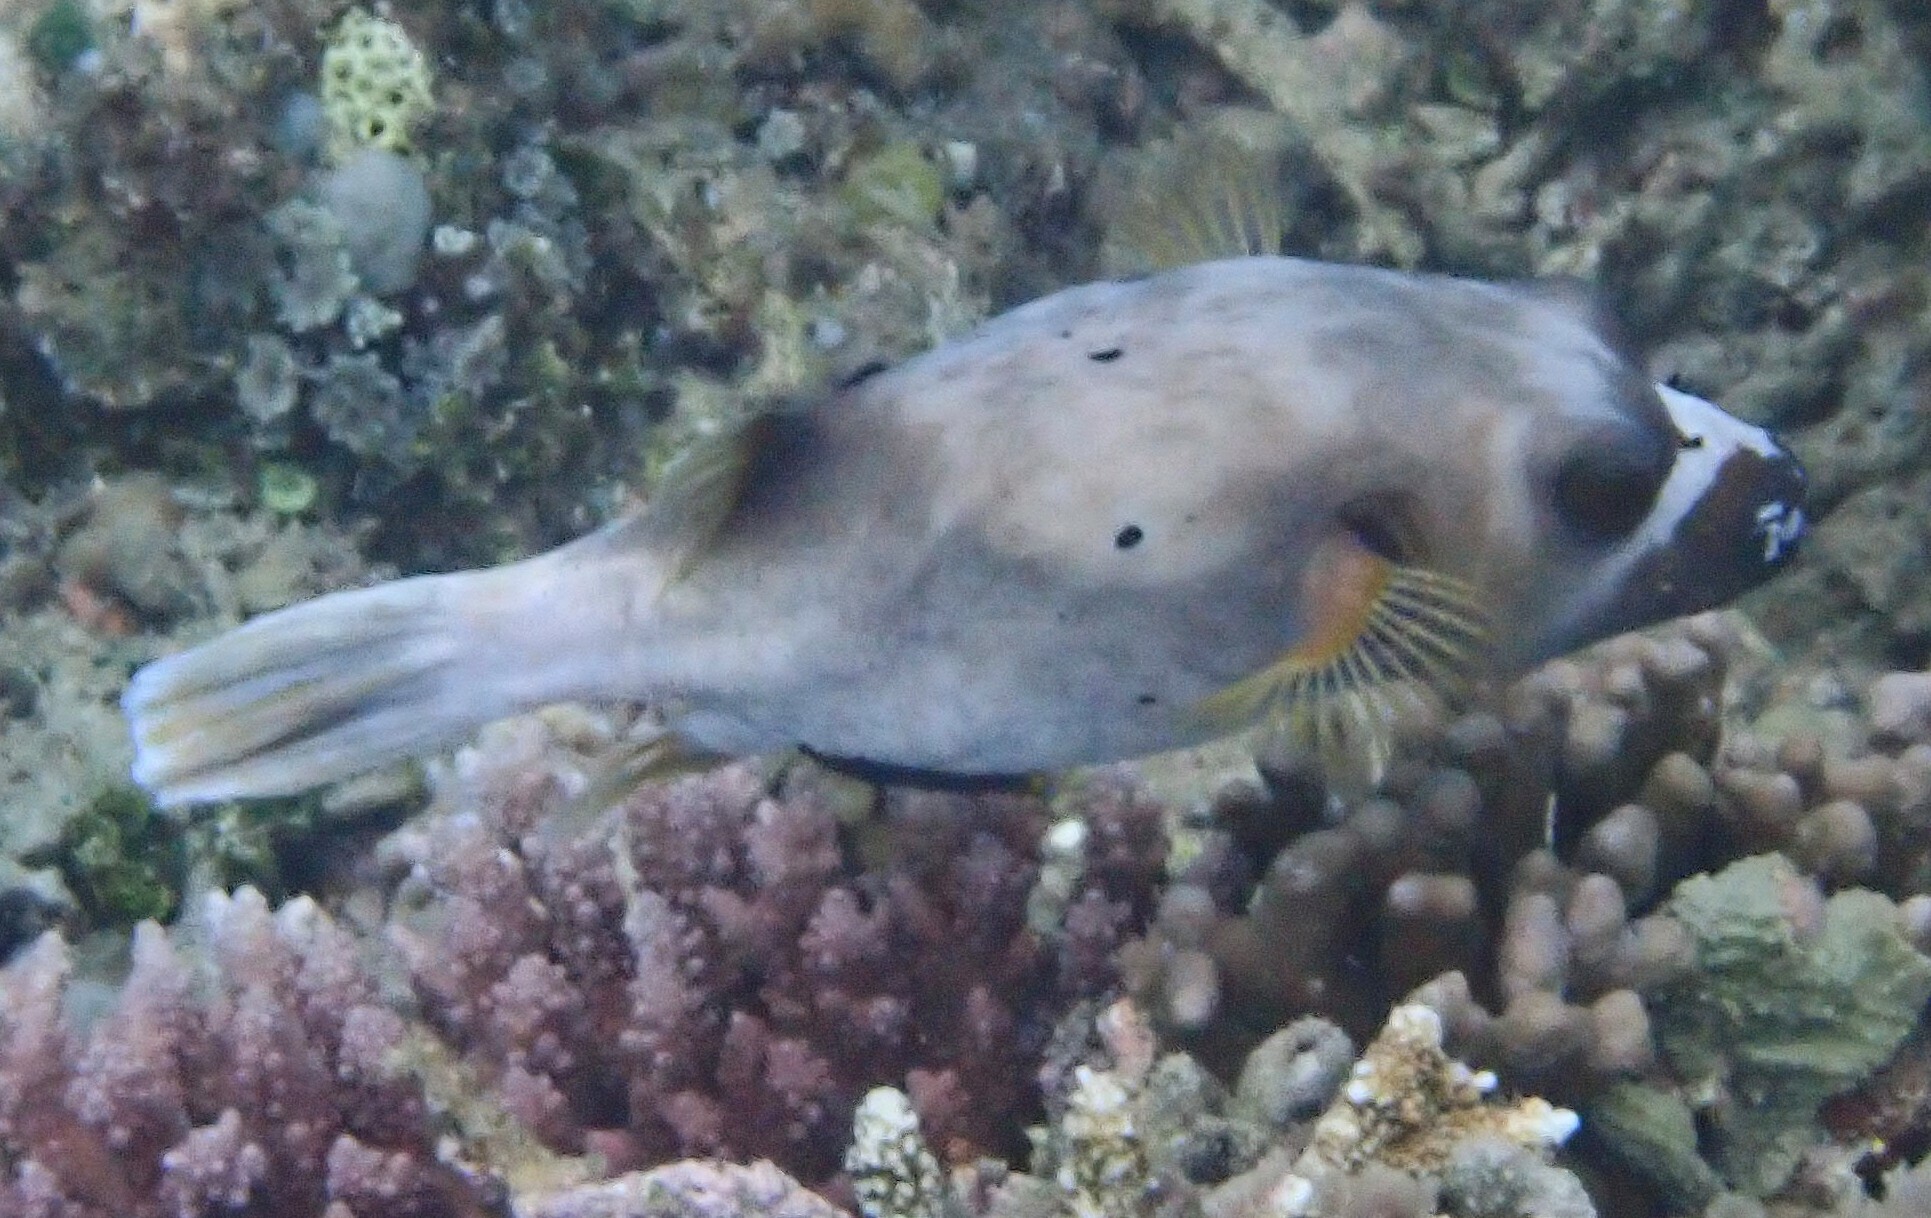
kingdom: Animalia
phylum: Chordata
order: Tetraodontiformes
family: Tetraodontidae
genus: Arothron
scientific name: Arothron nigropunctatus
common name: Black spotted blow fish
